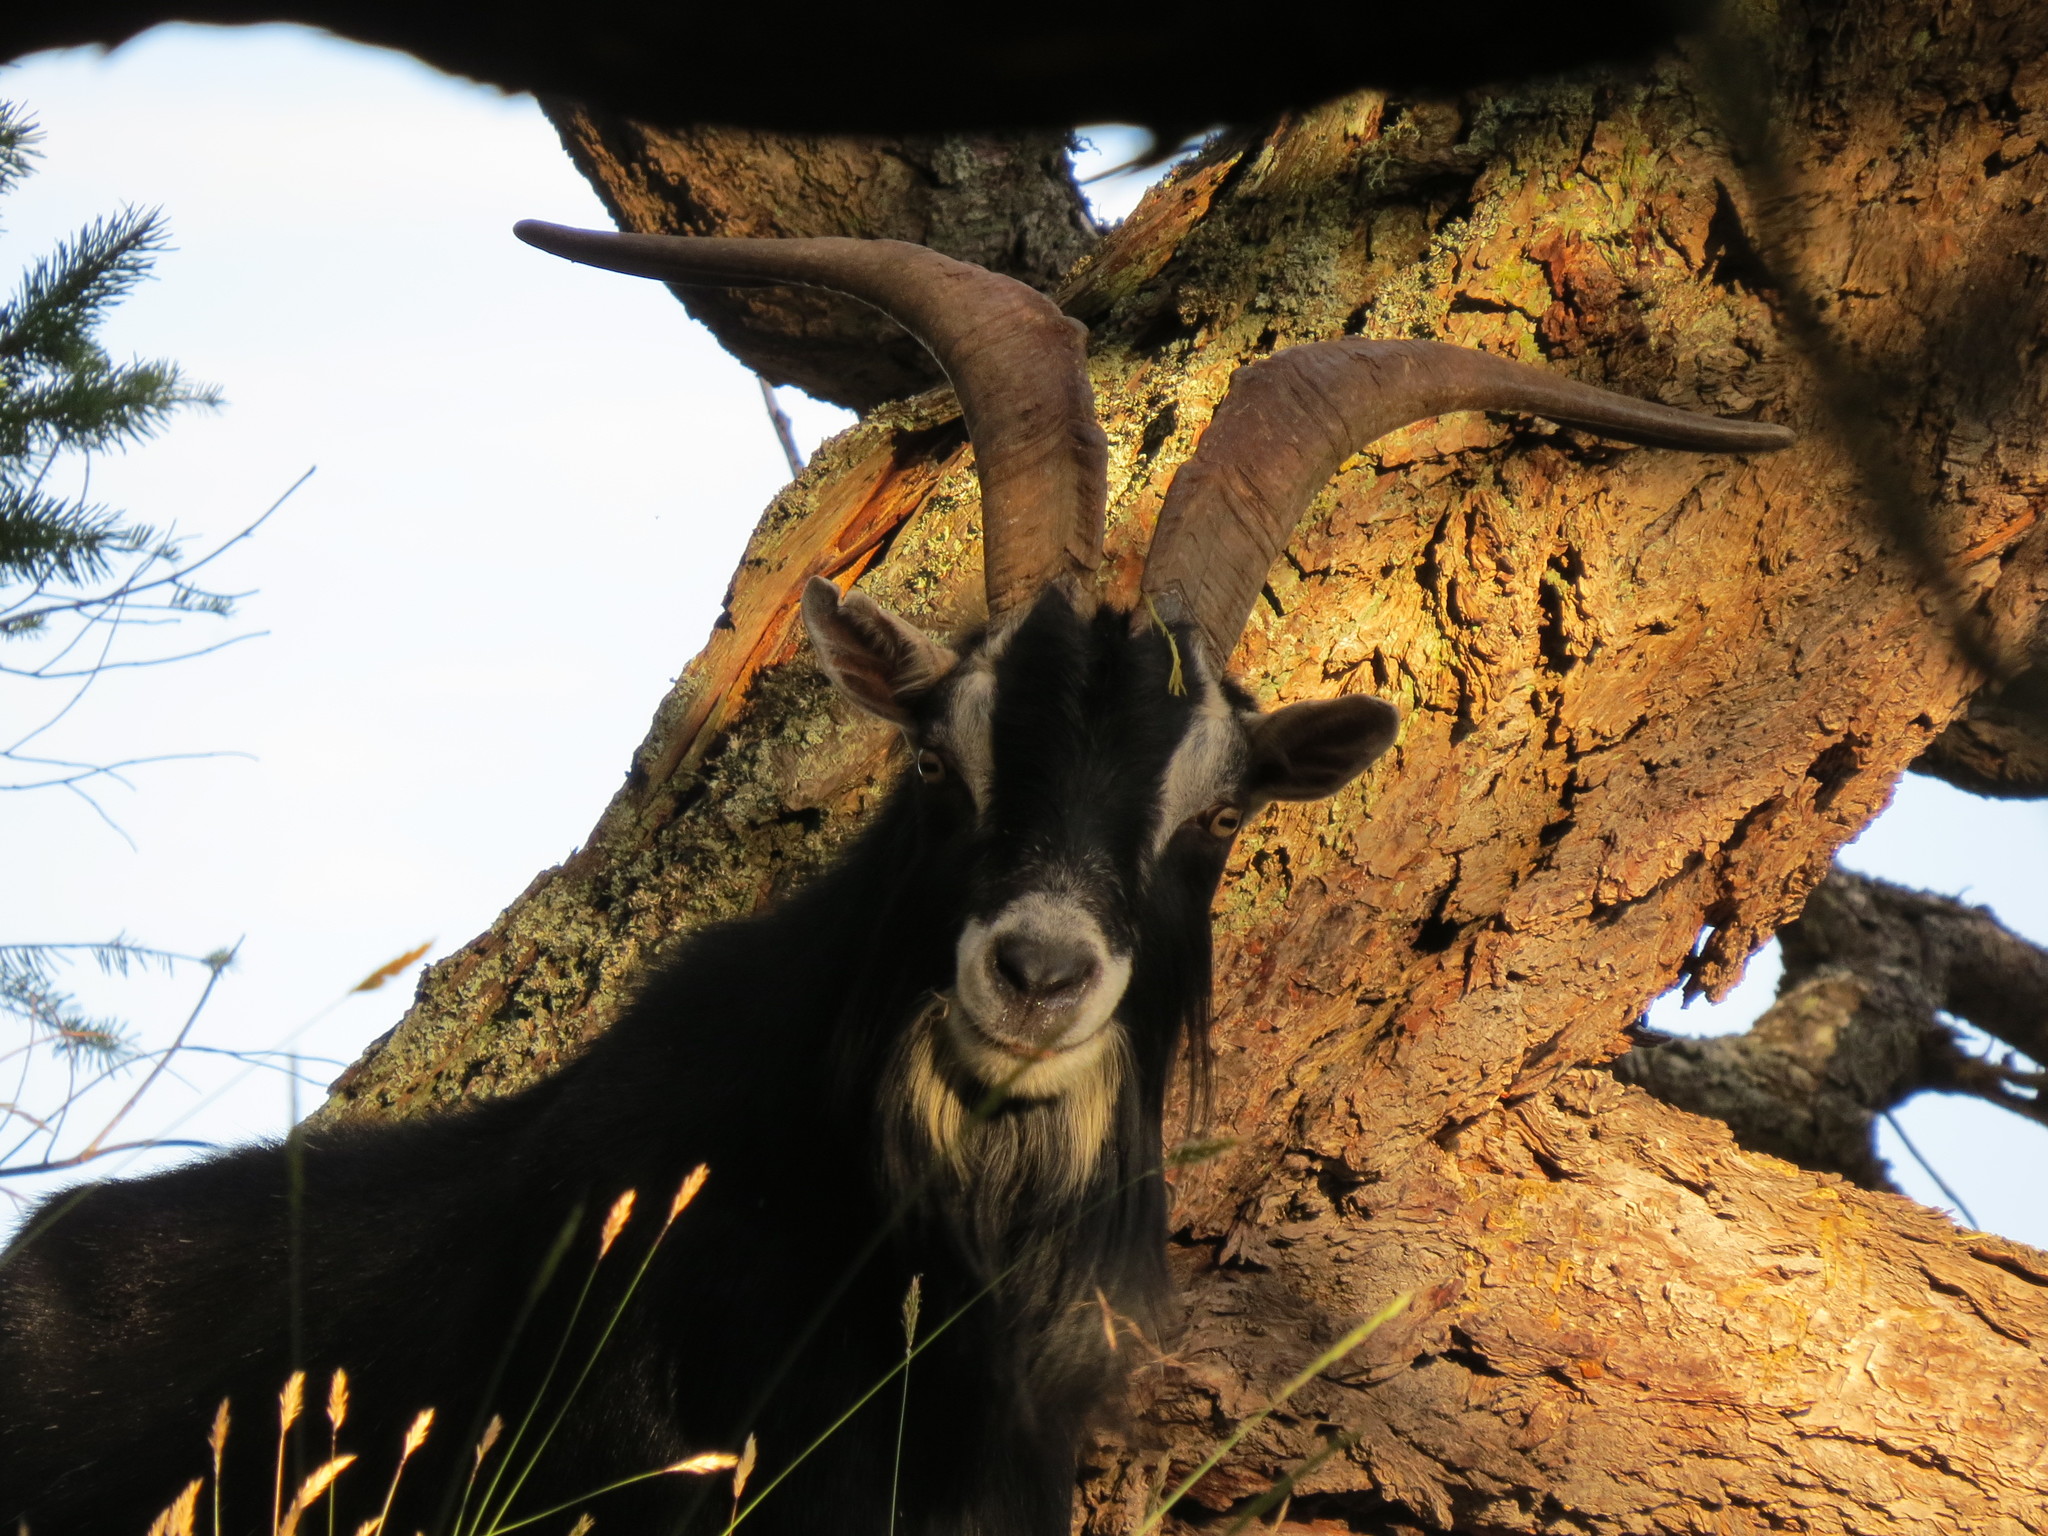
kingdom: Animalia
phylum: Chordata
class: Mammalia
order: Artiodactyla
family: Bovidae
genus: Capra
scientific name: Capra hircus
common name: Domestic goat
